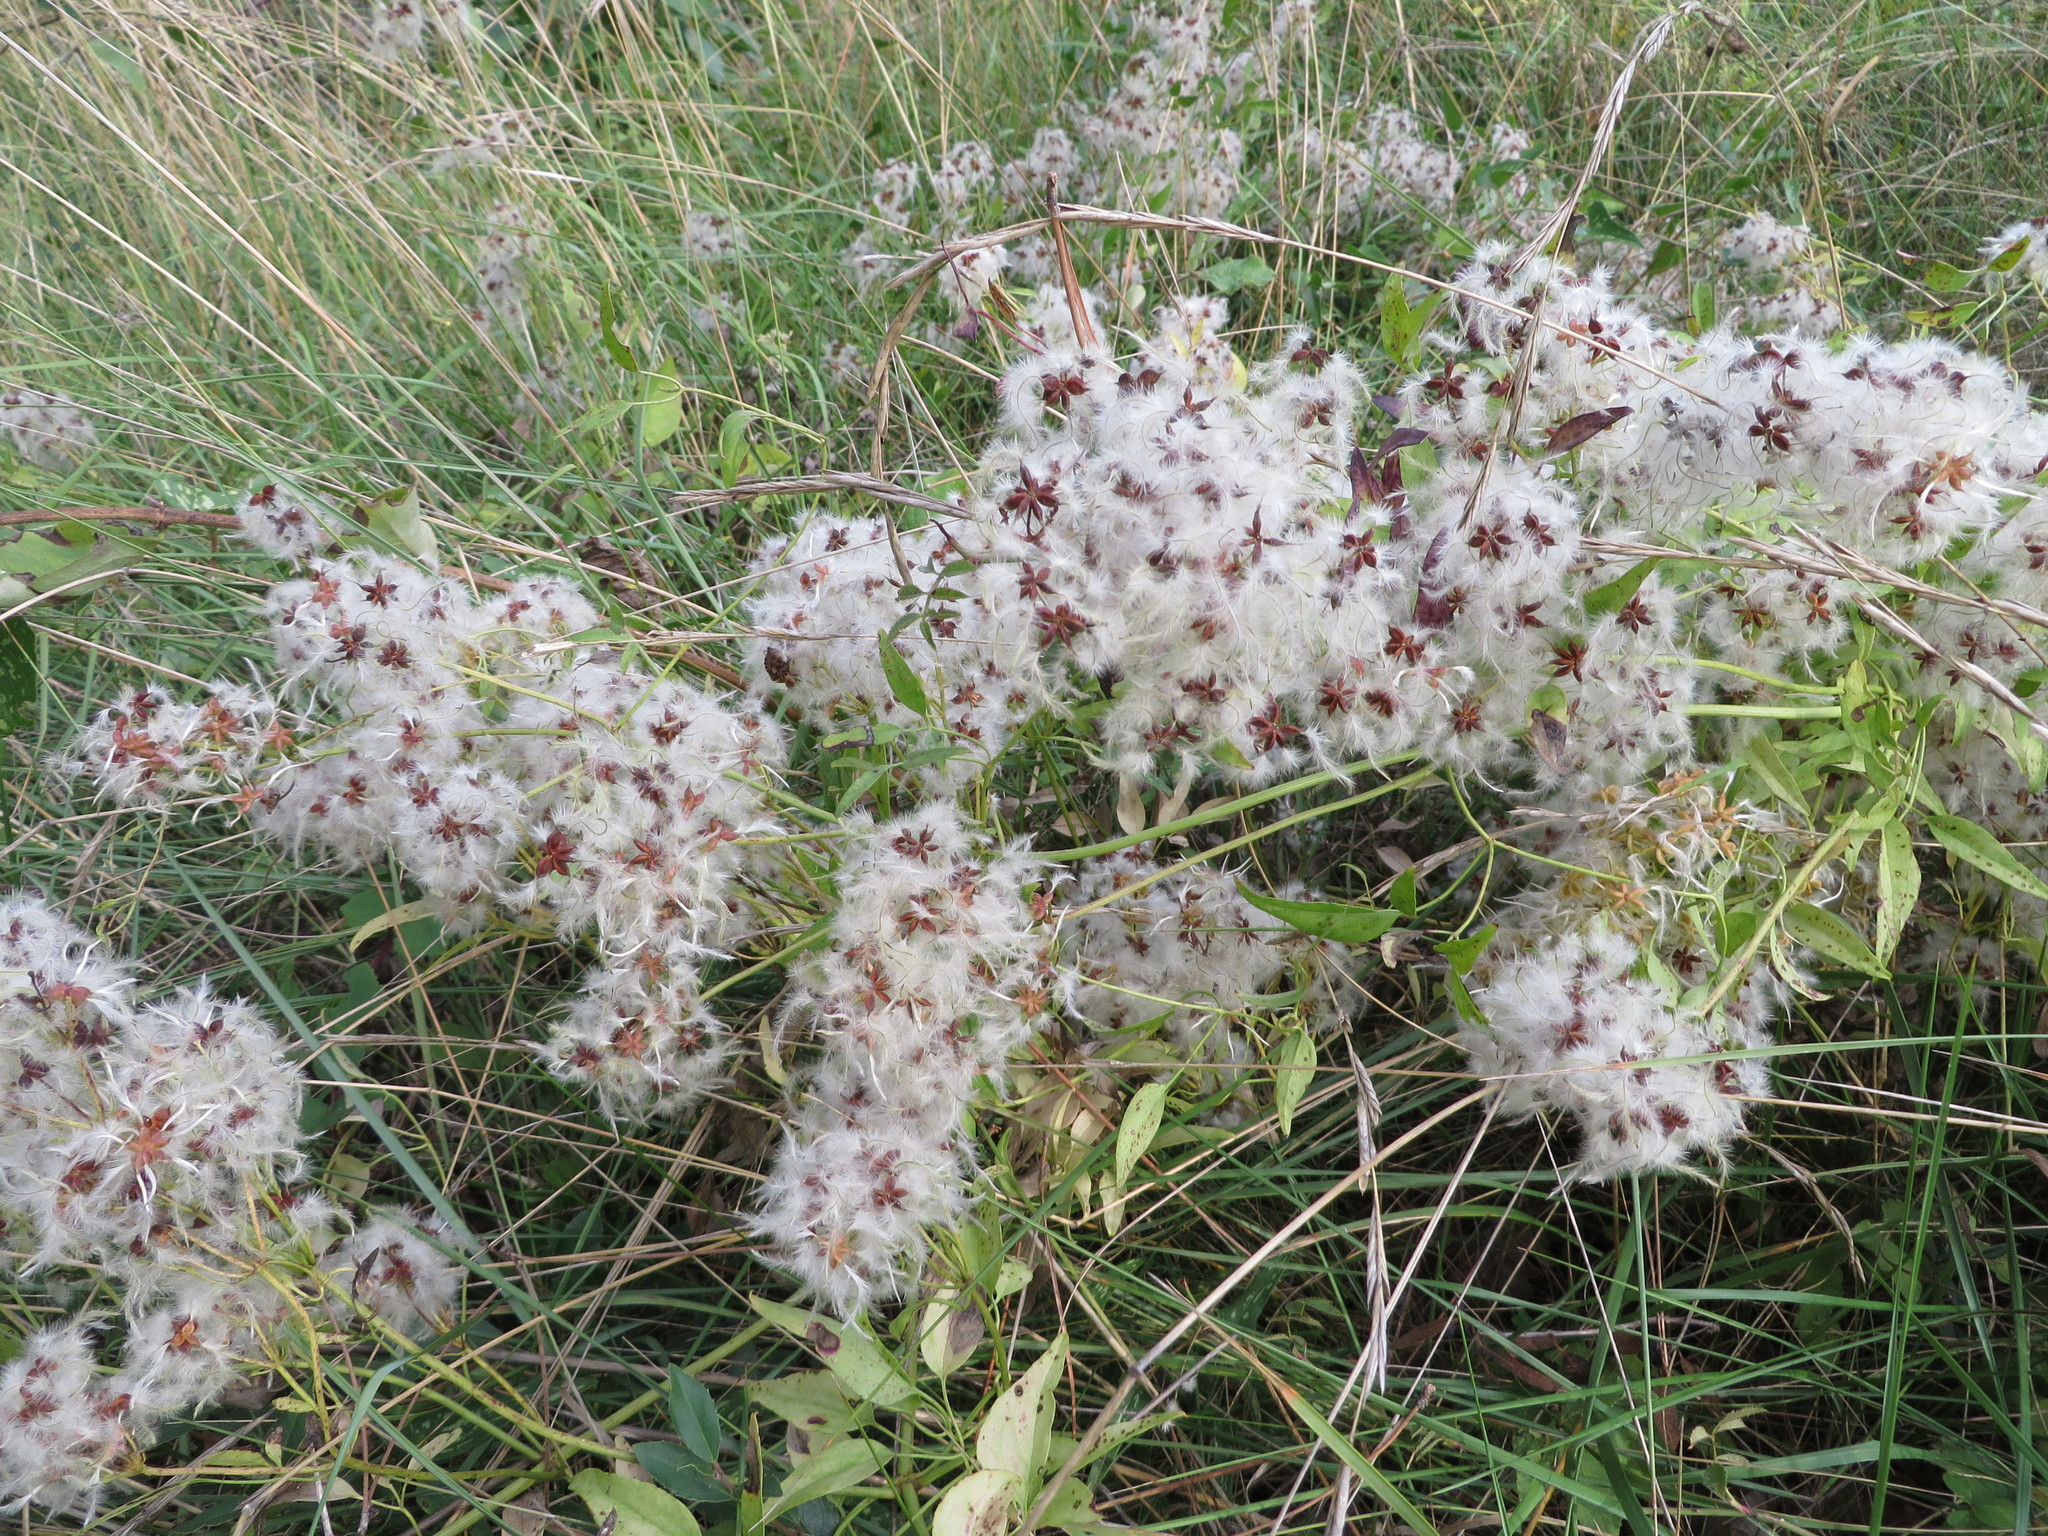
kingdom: Plantae
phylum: Tracheophyta
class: Magnoliopsida
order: Ranunculales
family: Ranunculaceae
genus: Clematis
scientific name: Clematis flammula
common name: Virgin's-bower
